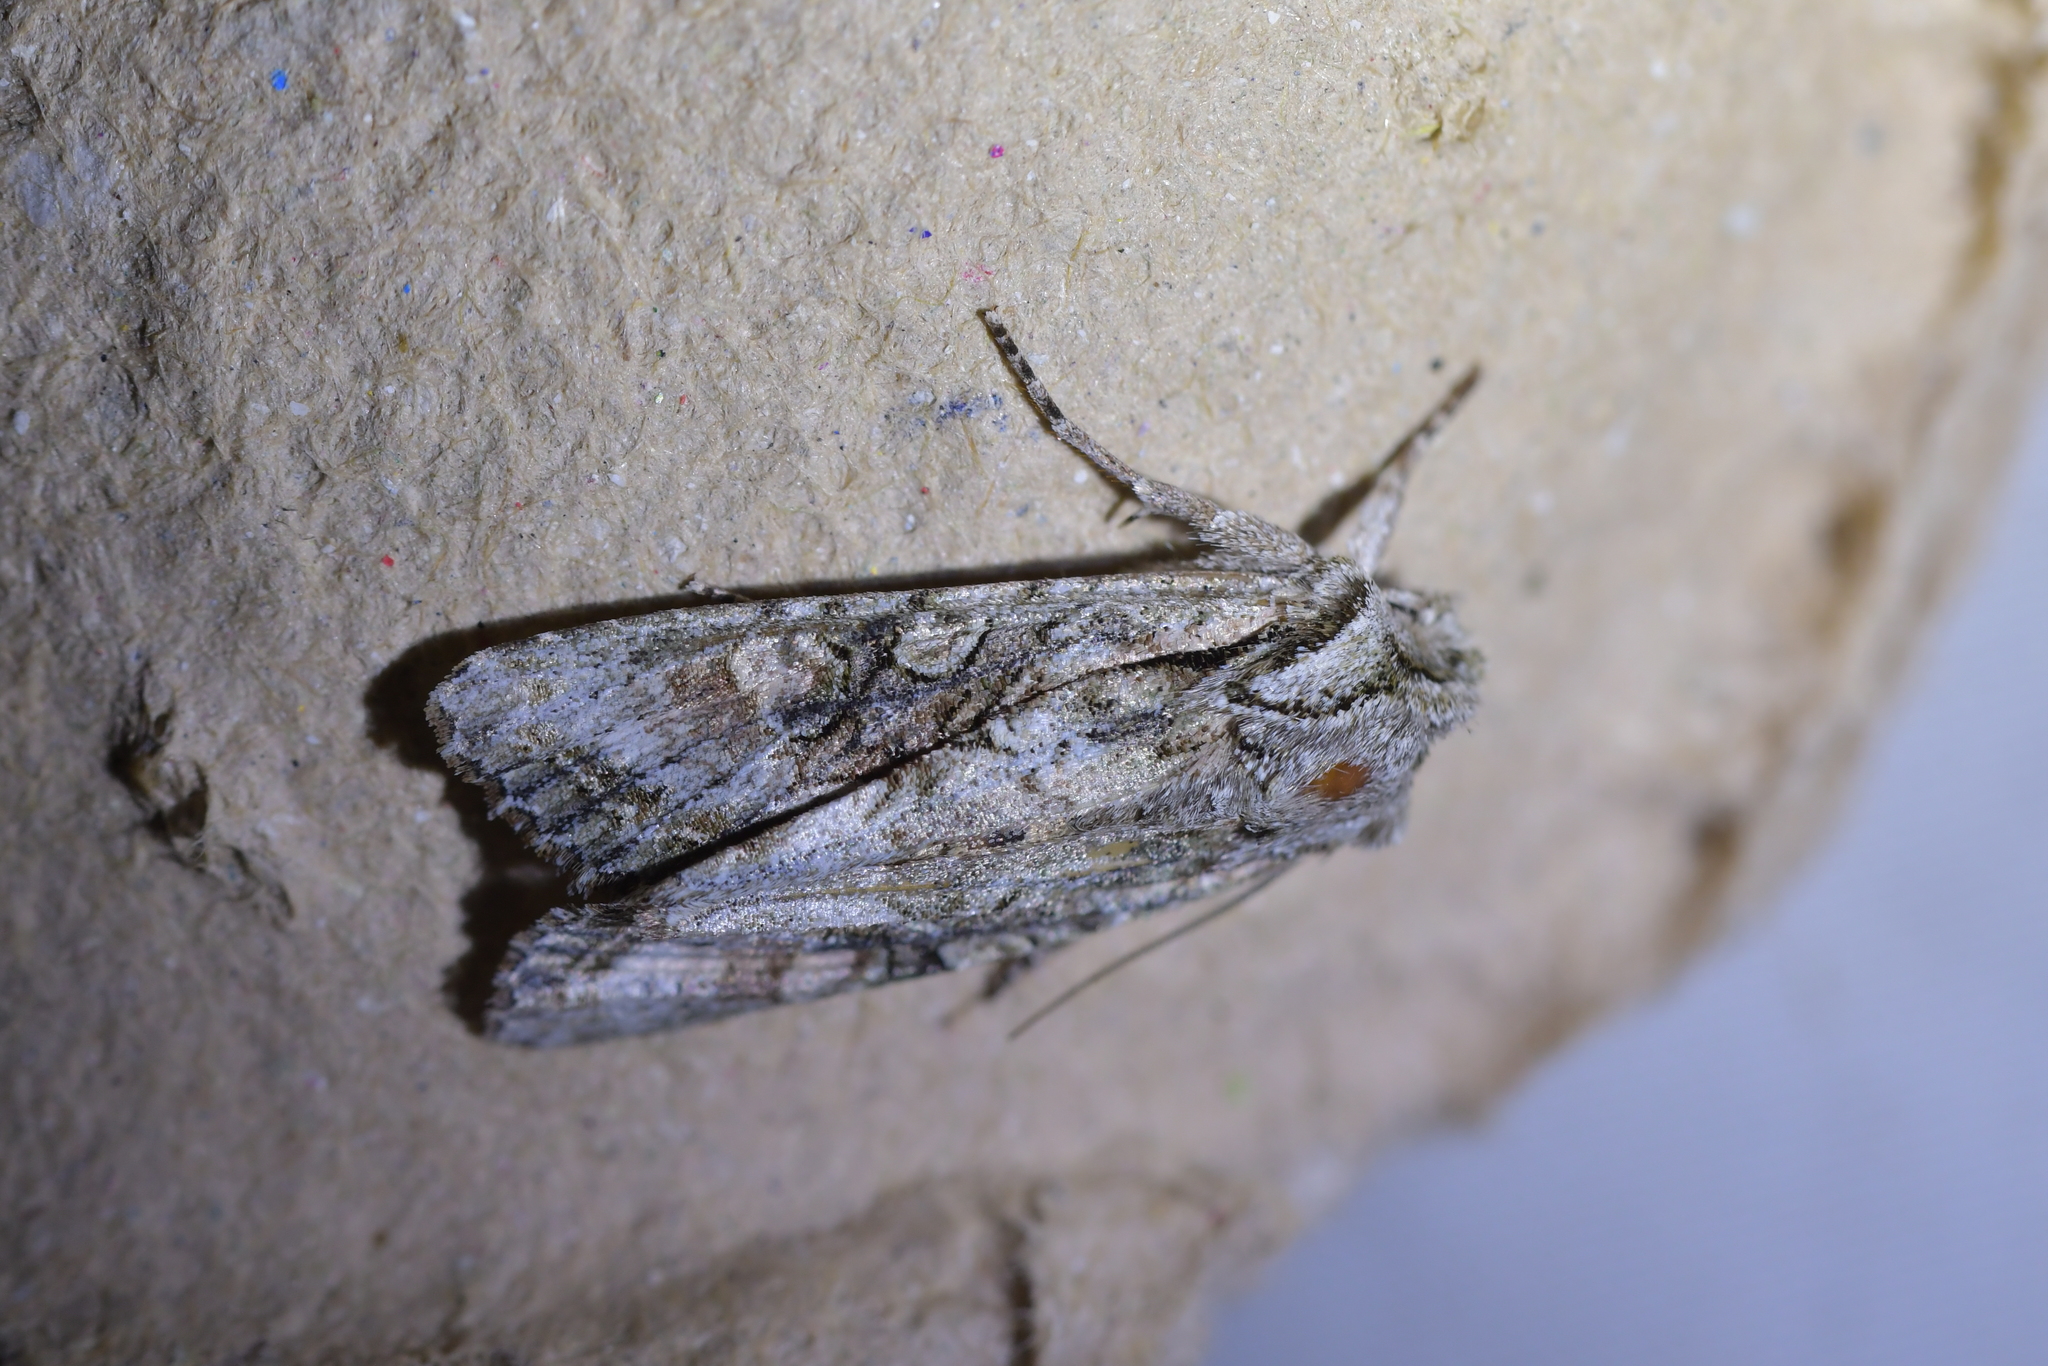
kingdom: Animalia
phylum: Arthropoda
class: Insecta
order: Lepidoptera
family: Noctuidae
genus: Ichneutica
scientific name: Ichneutica mutans
